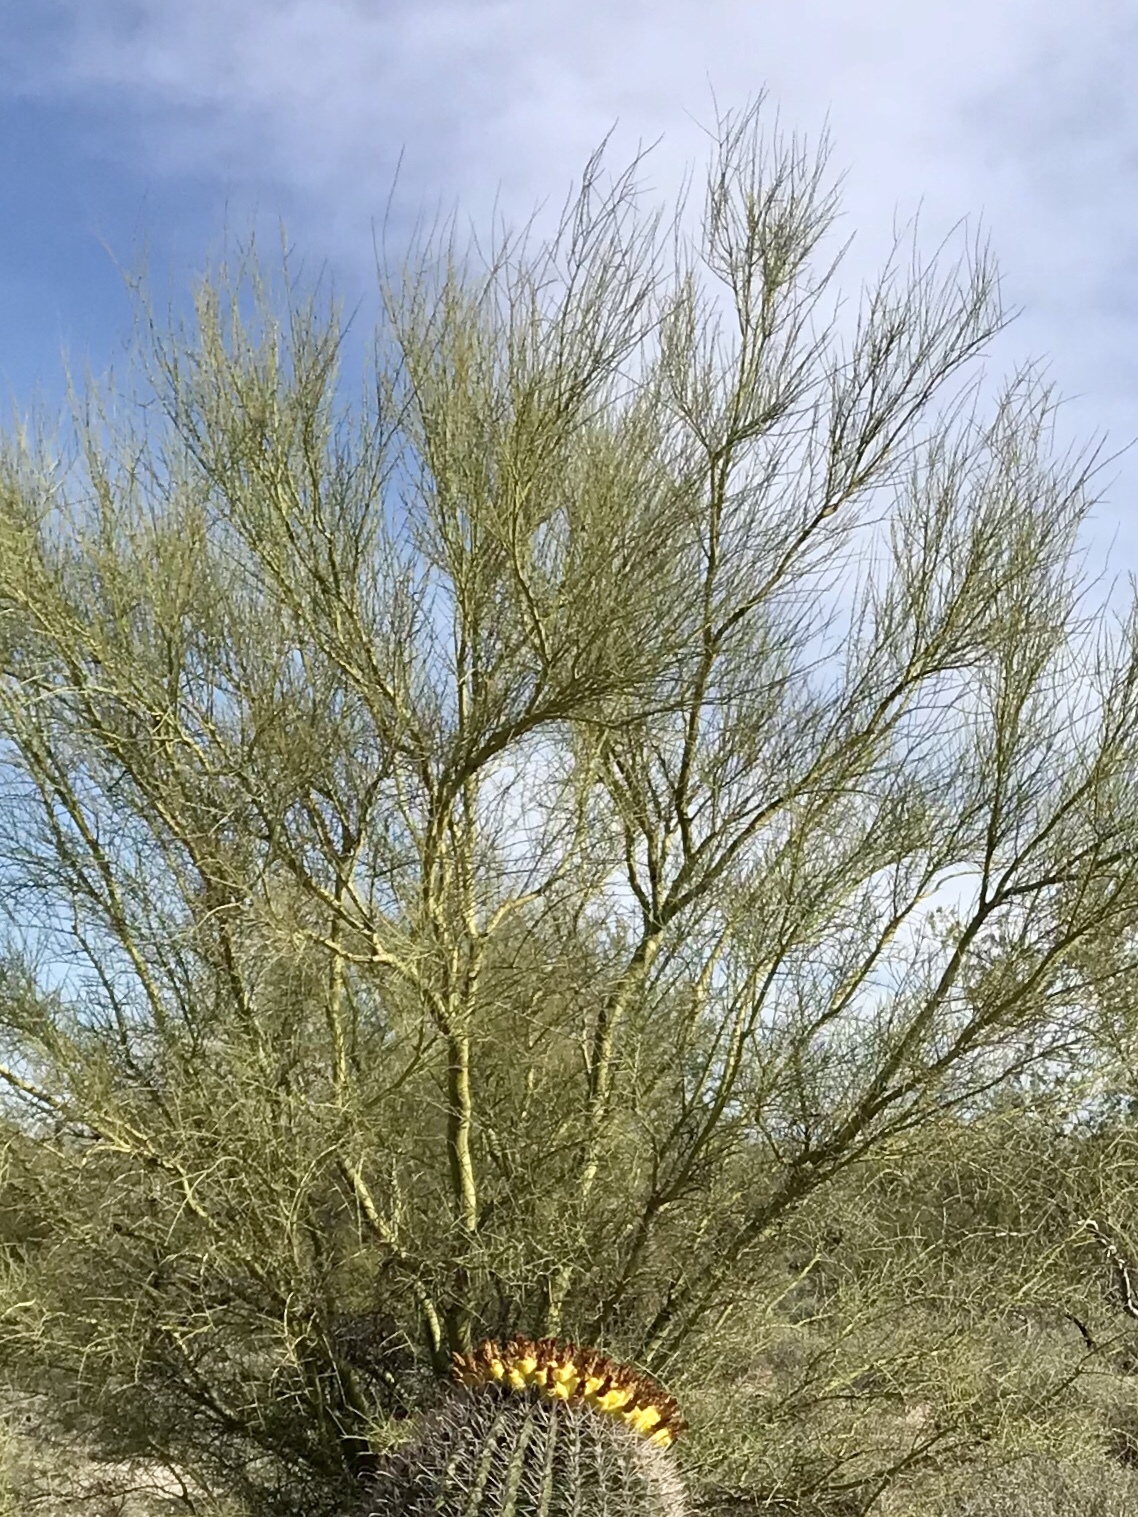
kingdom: Plantae
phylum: Tracheophyta
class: Magnoliopsida
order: Fabales
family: Fabaceae
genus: Parkinsonia
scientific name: Parkinsonia microphylla
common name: Yellow paloverde
